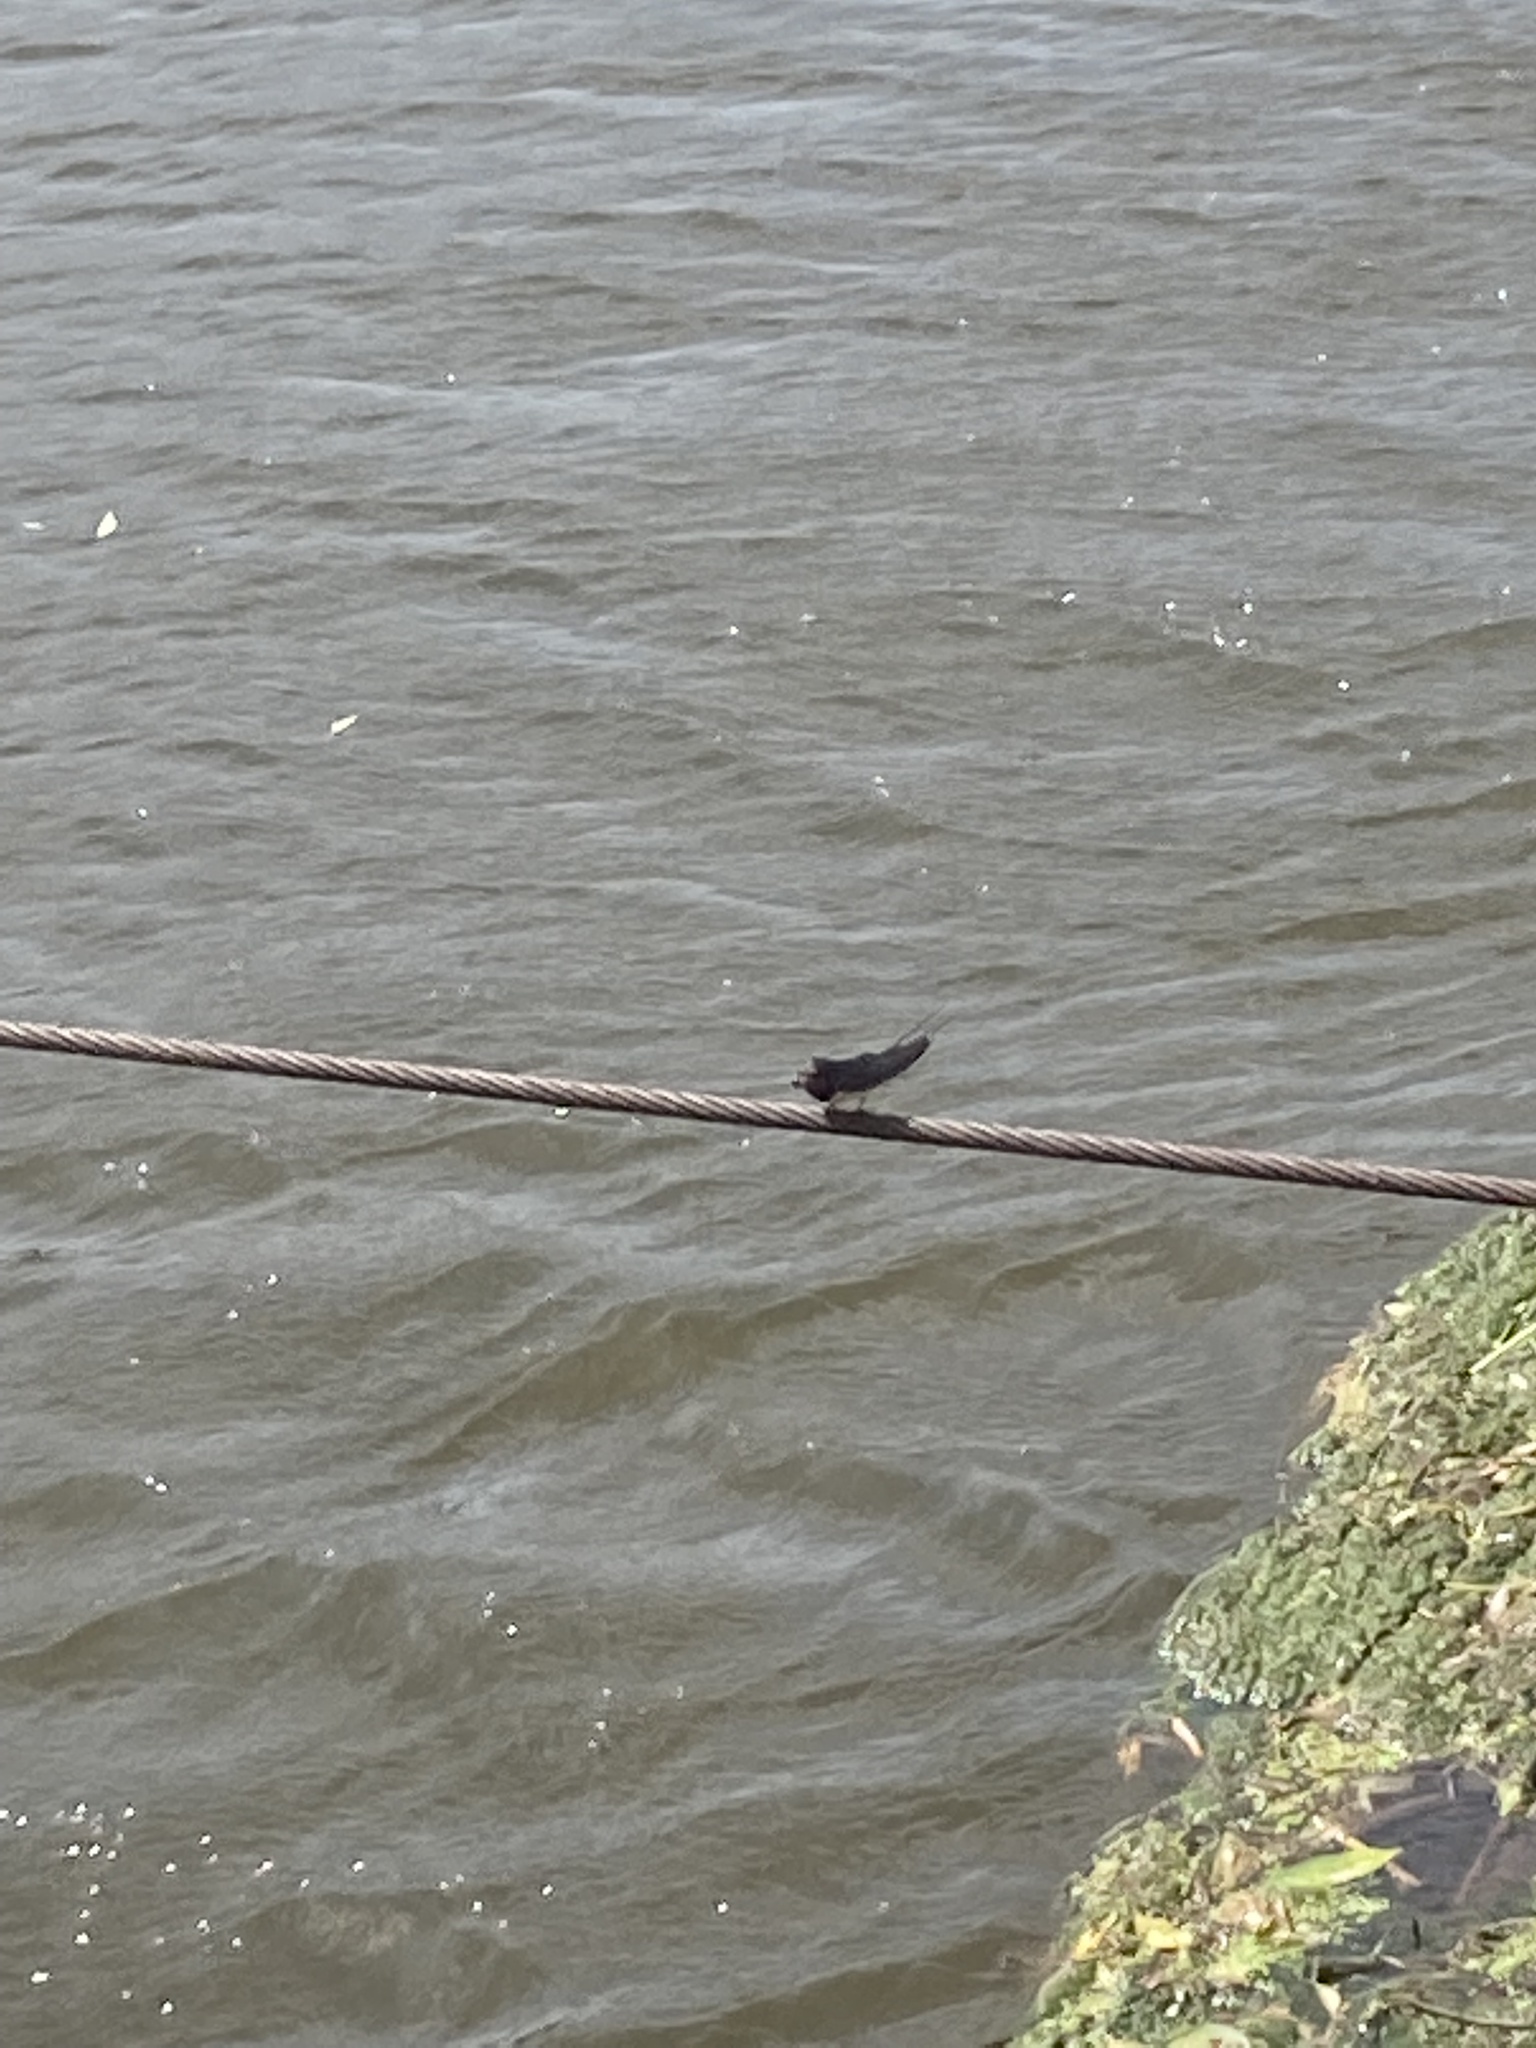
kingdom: Animalia
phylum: Chordata
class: Aves
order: Passeriformes
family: Hirundinidae
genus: Hirundo
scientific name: Hirundo rustica
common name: Barn swallow
